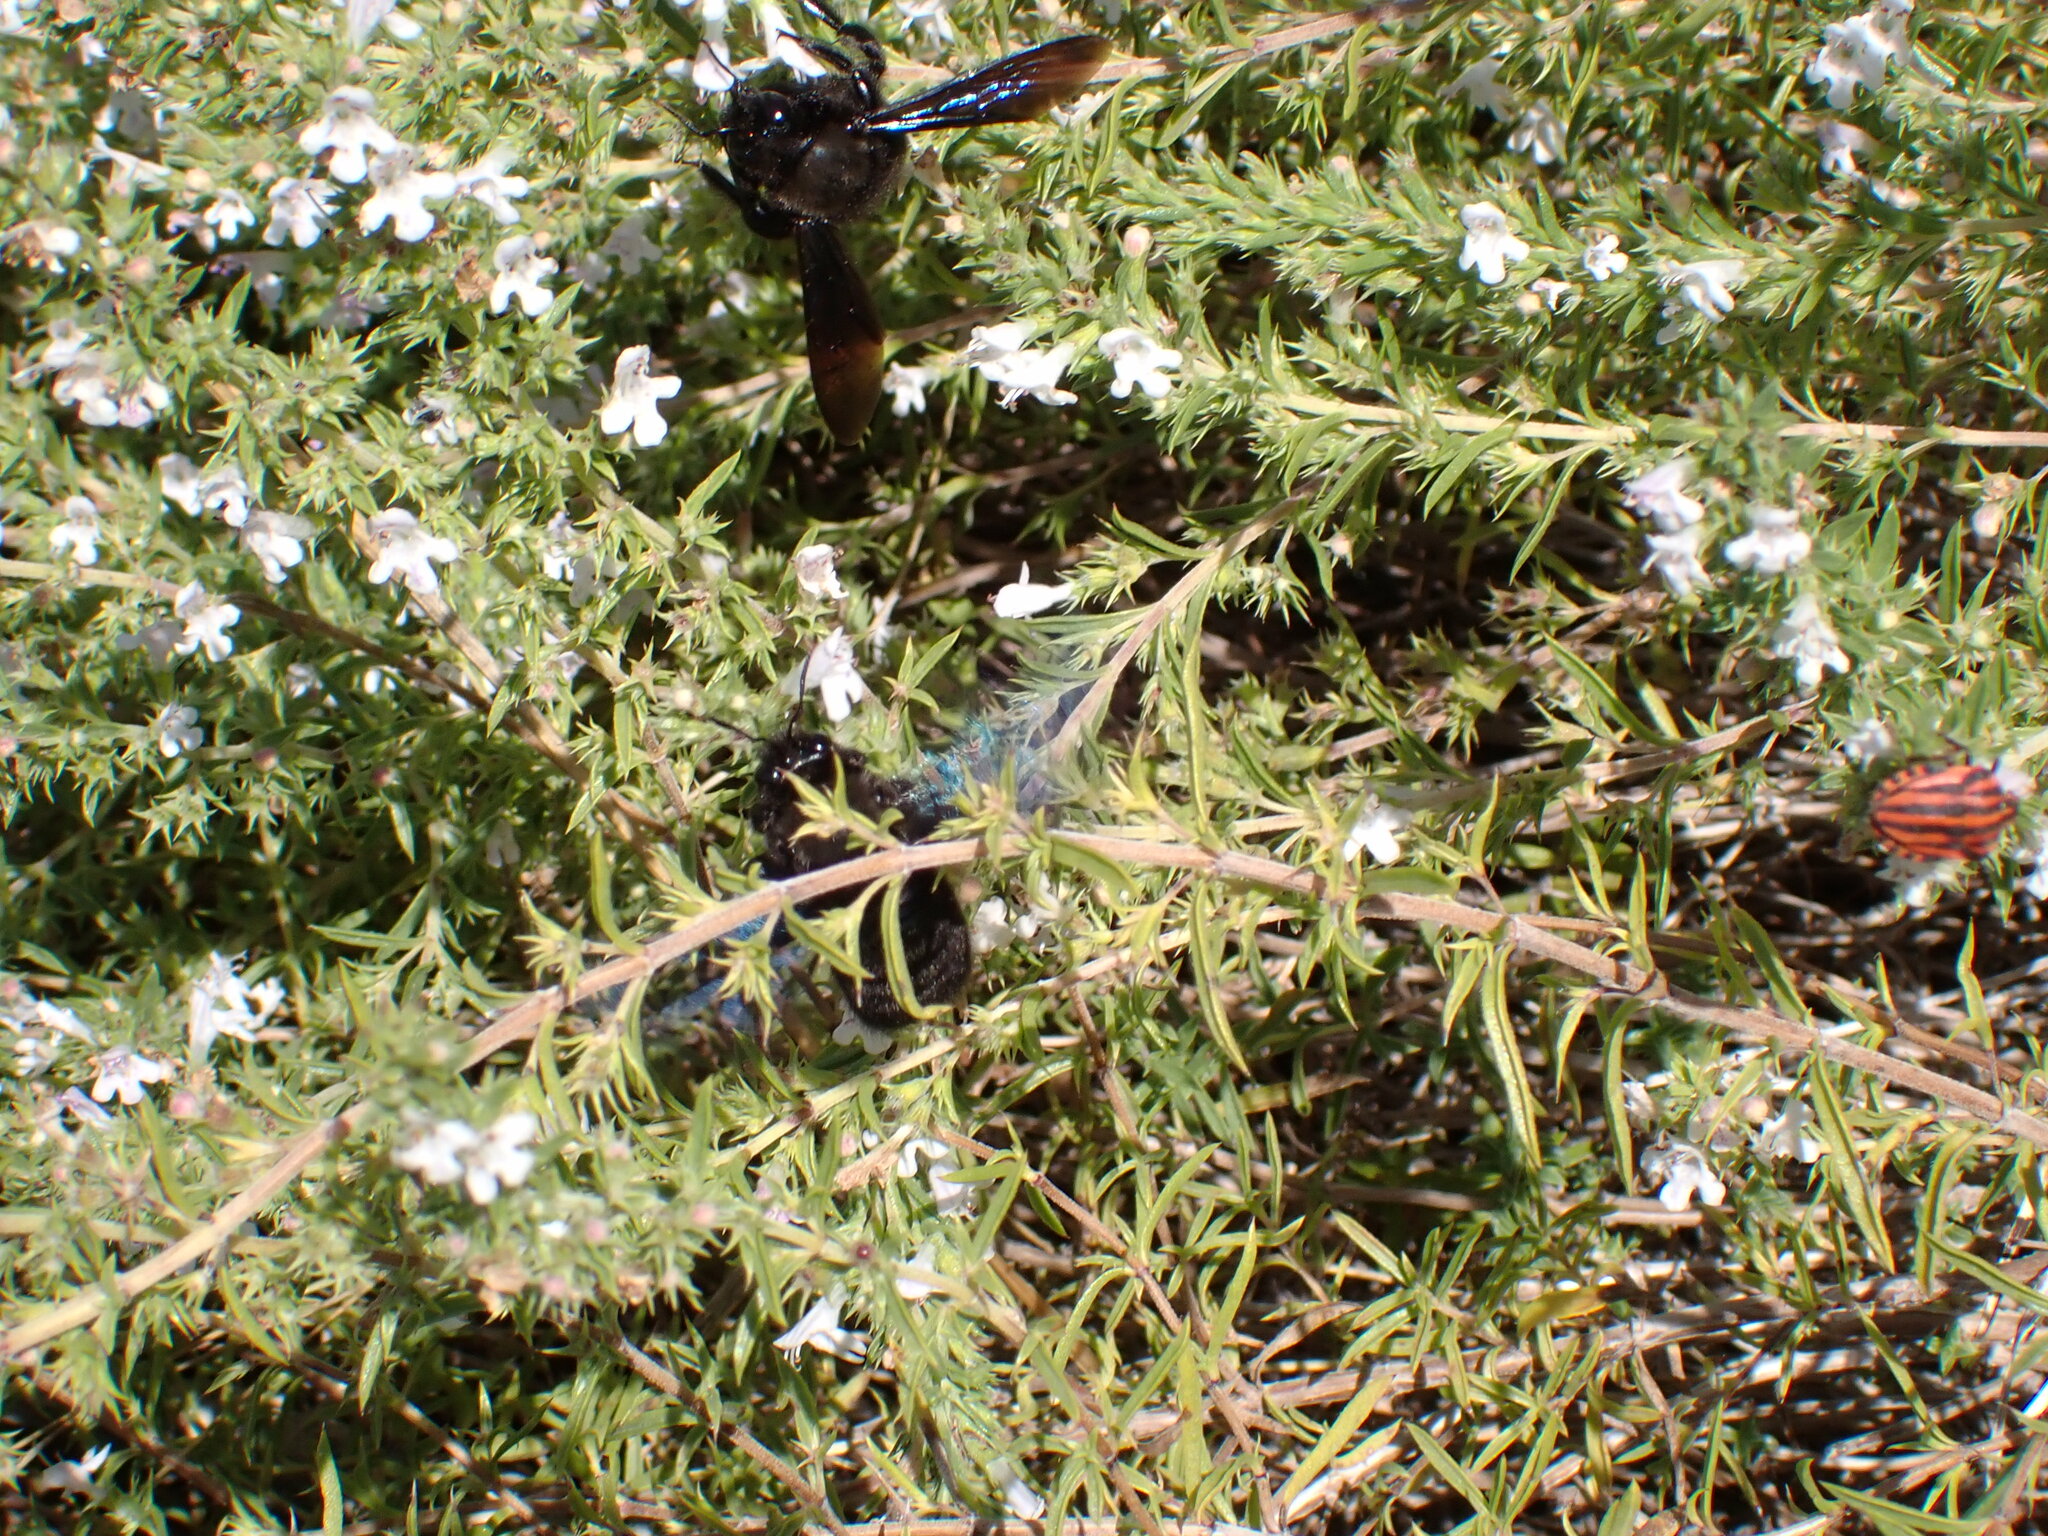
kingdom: Animalia
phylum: Arthropoda
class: Insecta
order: Hemiptera
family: Pentatomidae
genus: Graphosoma
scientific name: Graphosoma italicum
